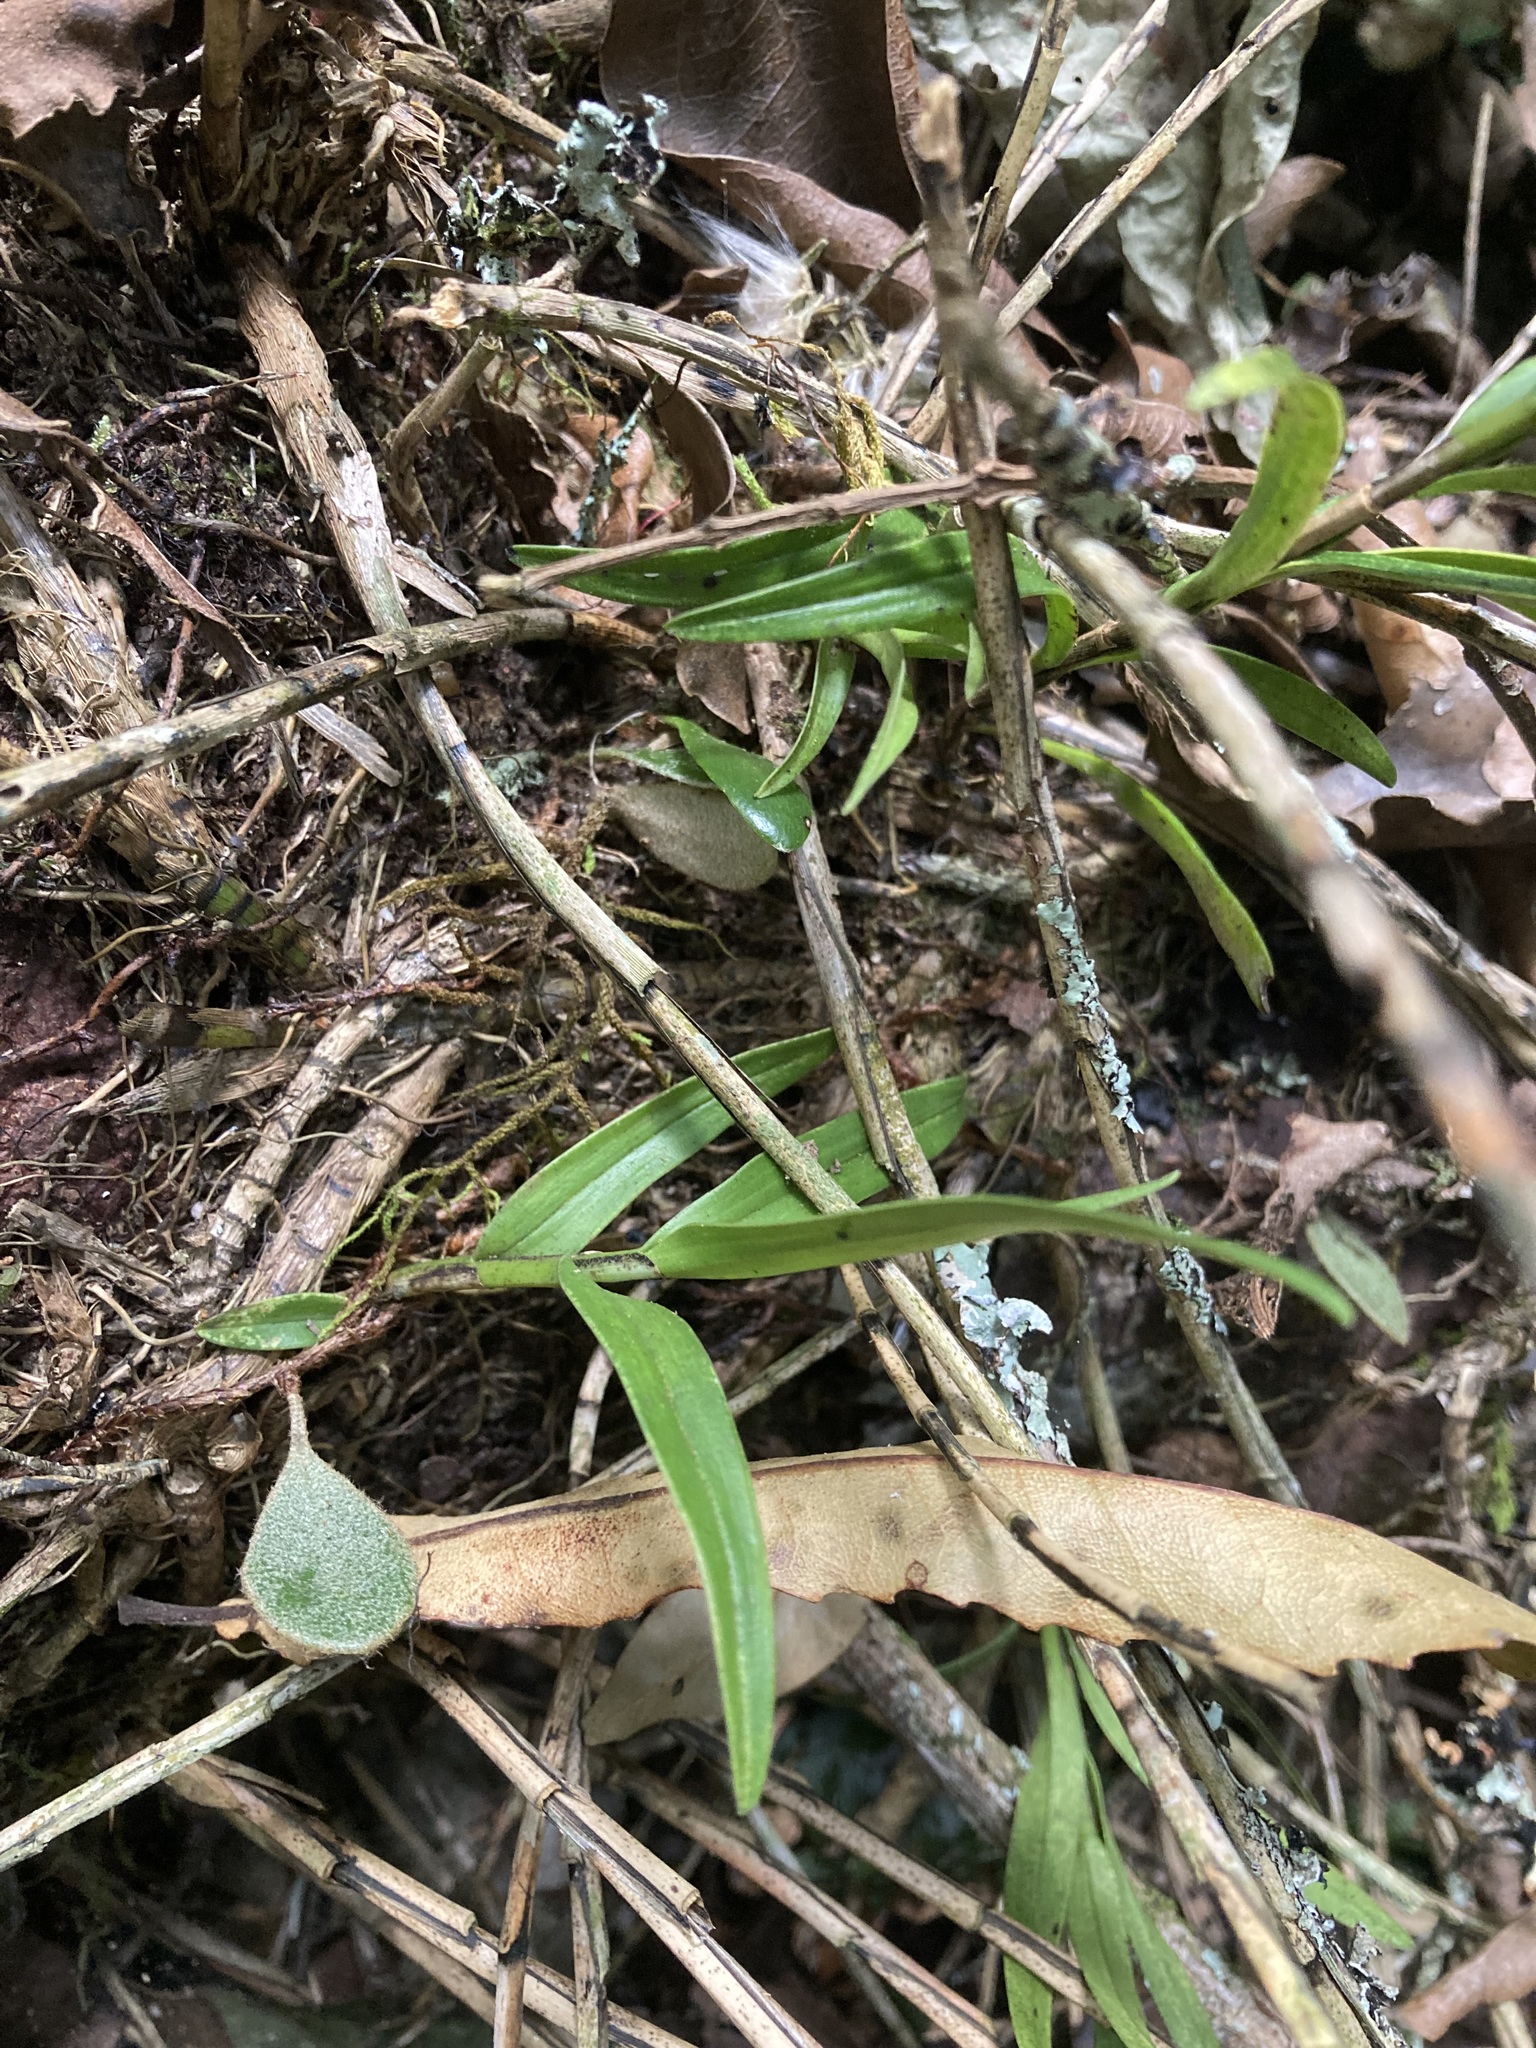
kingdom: Plantae
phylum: Tracheophyta
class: Liliopsida
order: Asparagales
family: Orchidaceae
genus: Earina
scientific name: Earina autumnalis
